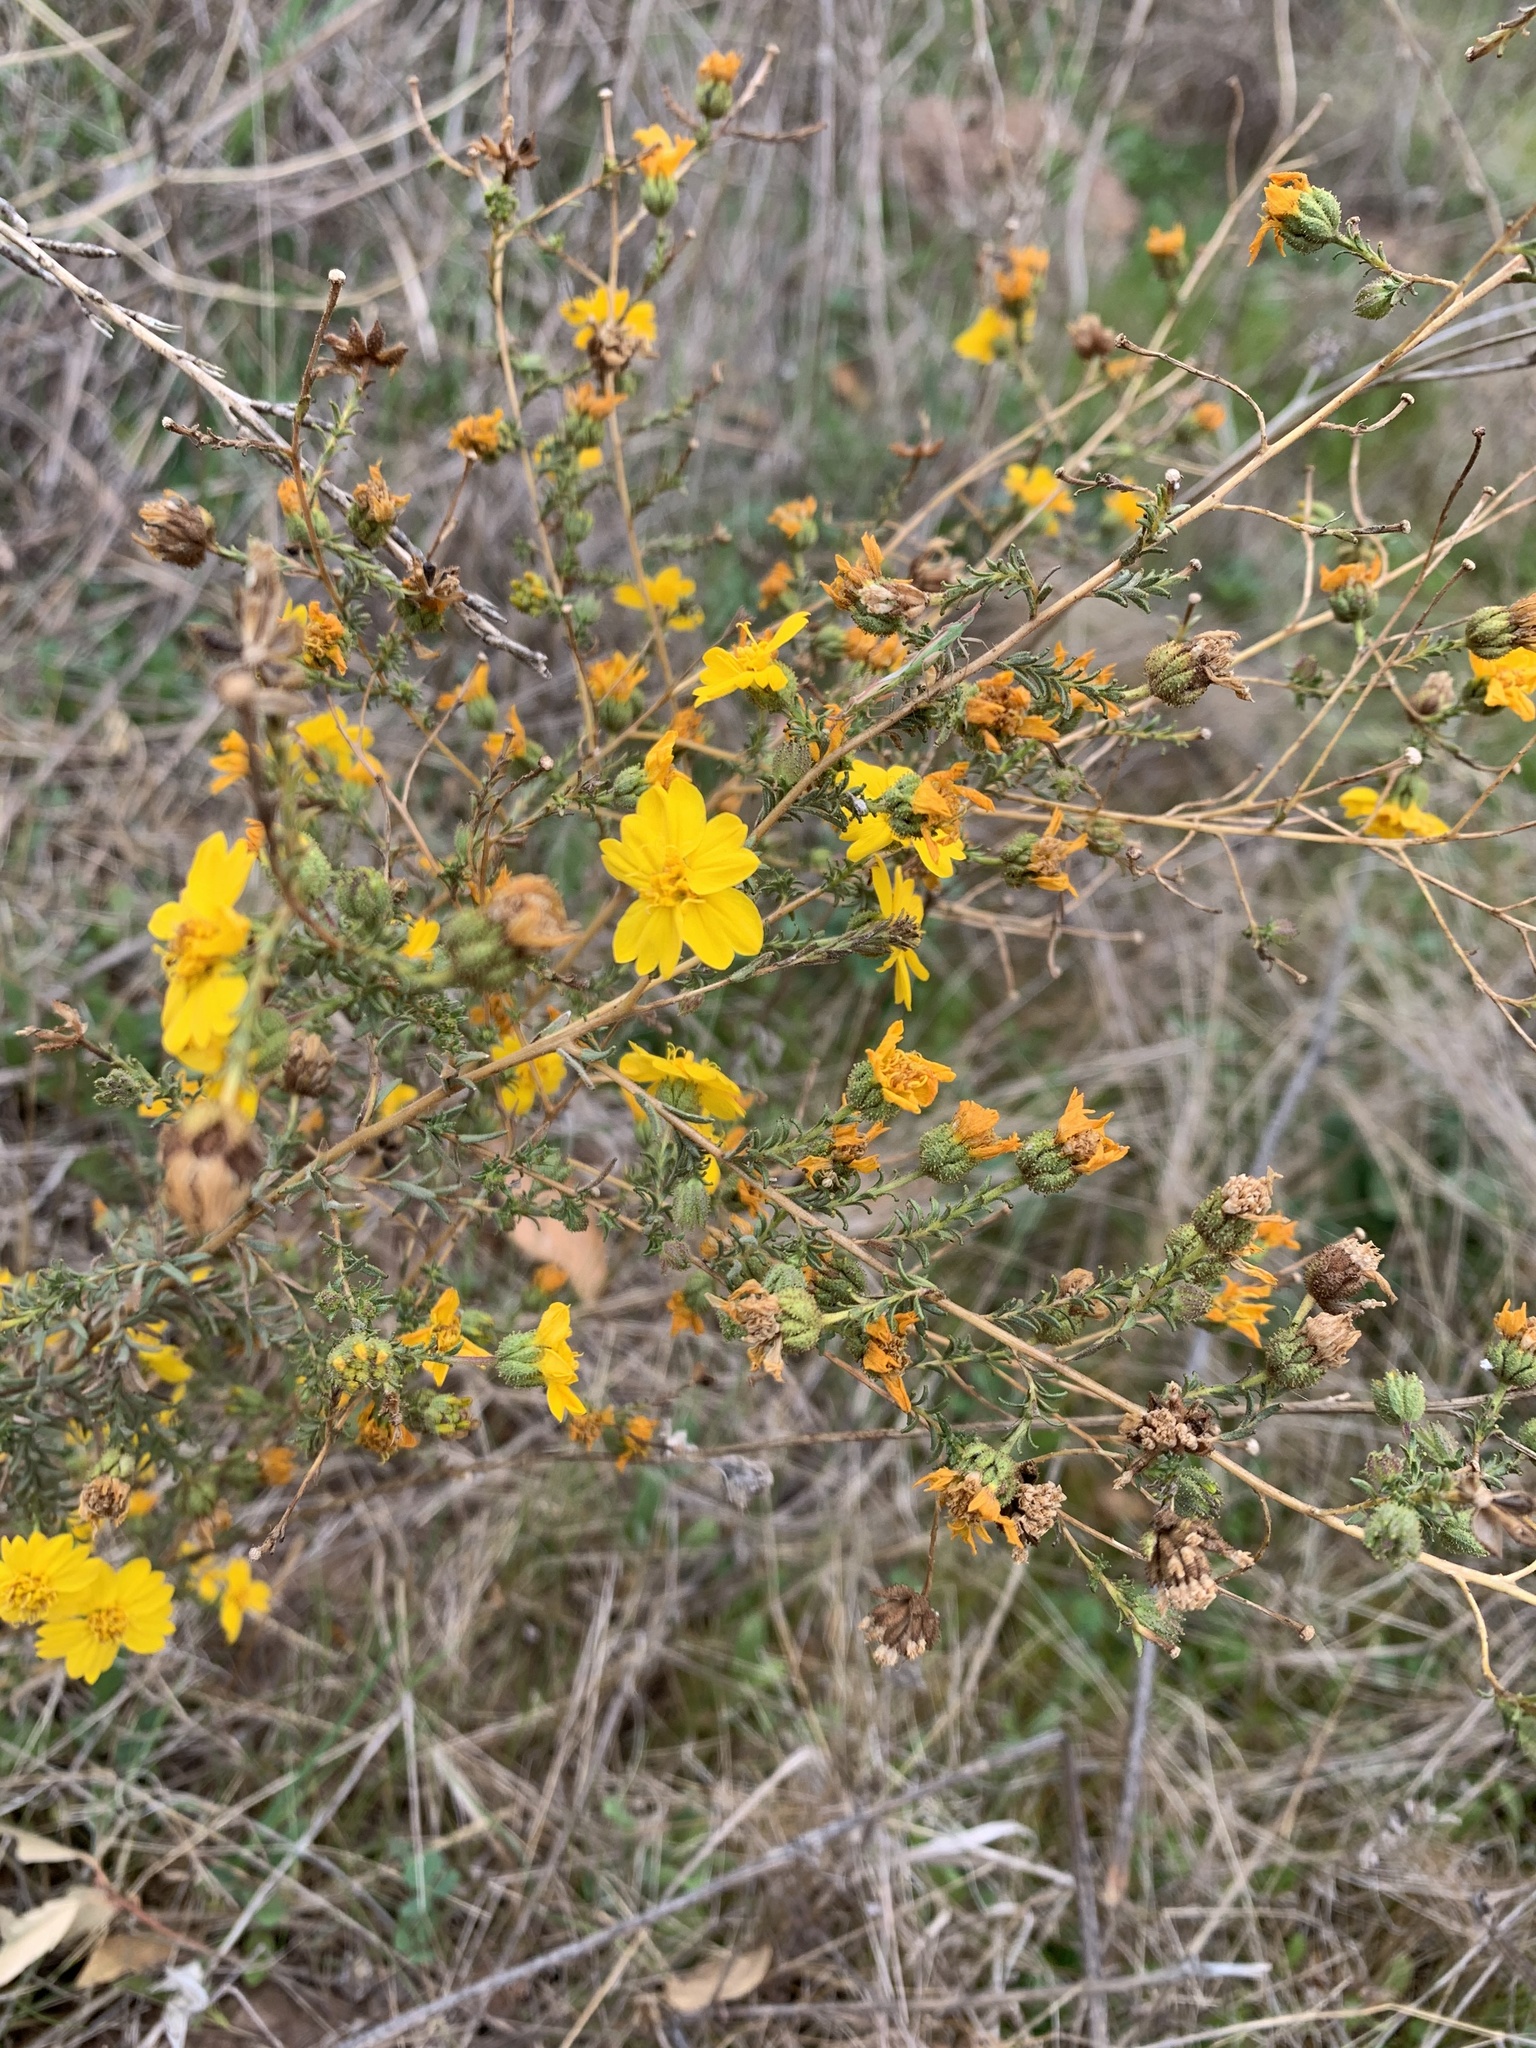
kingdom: Plantae
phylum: Tracheophyta
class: Magnoliopsida
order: Asterales
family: Asteraceae
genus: Holocarpha
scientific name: Holocarpha heermannii
